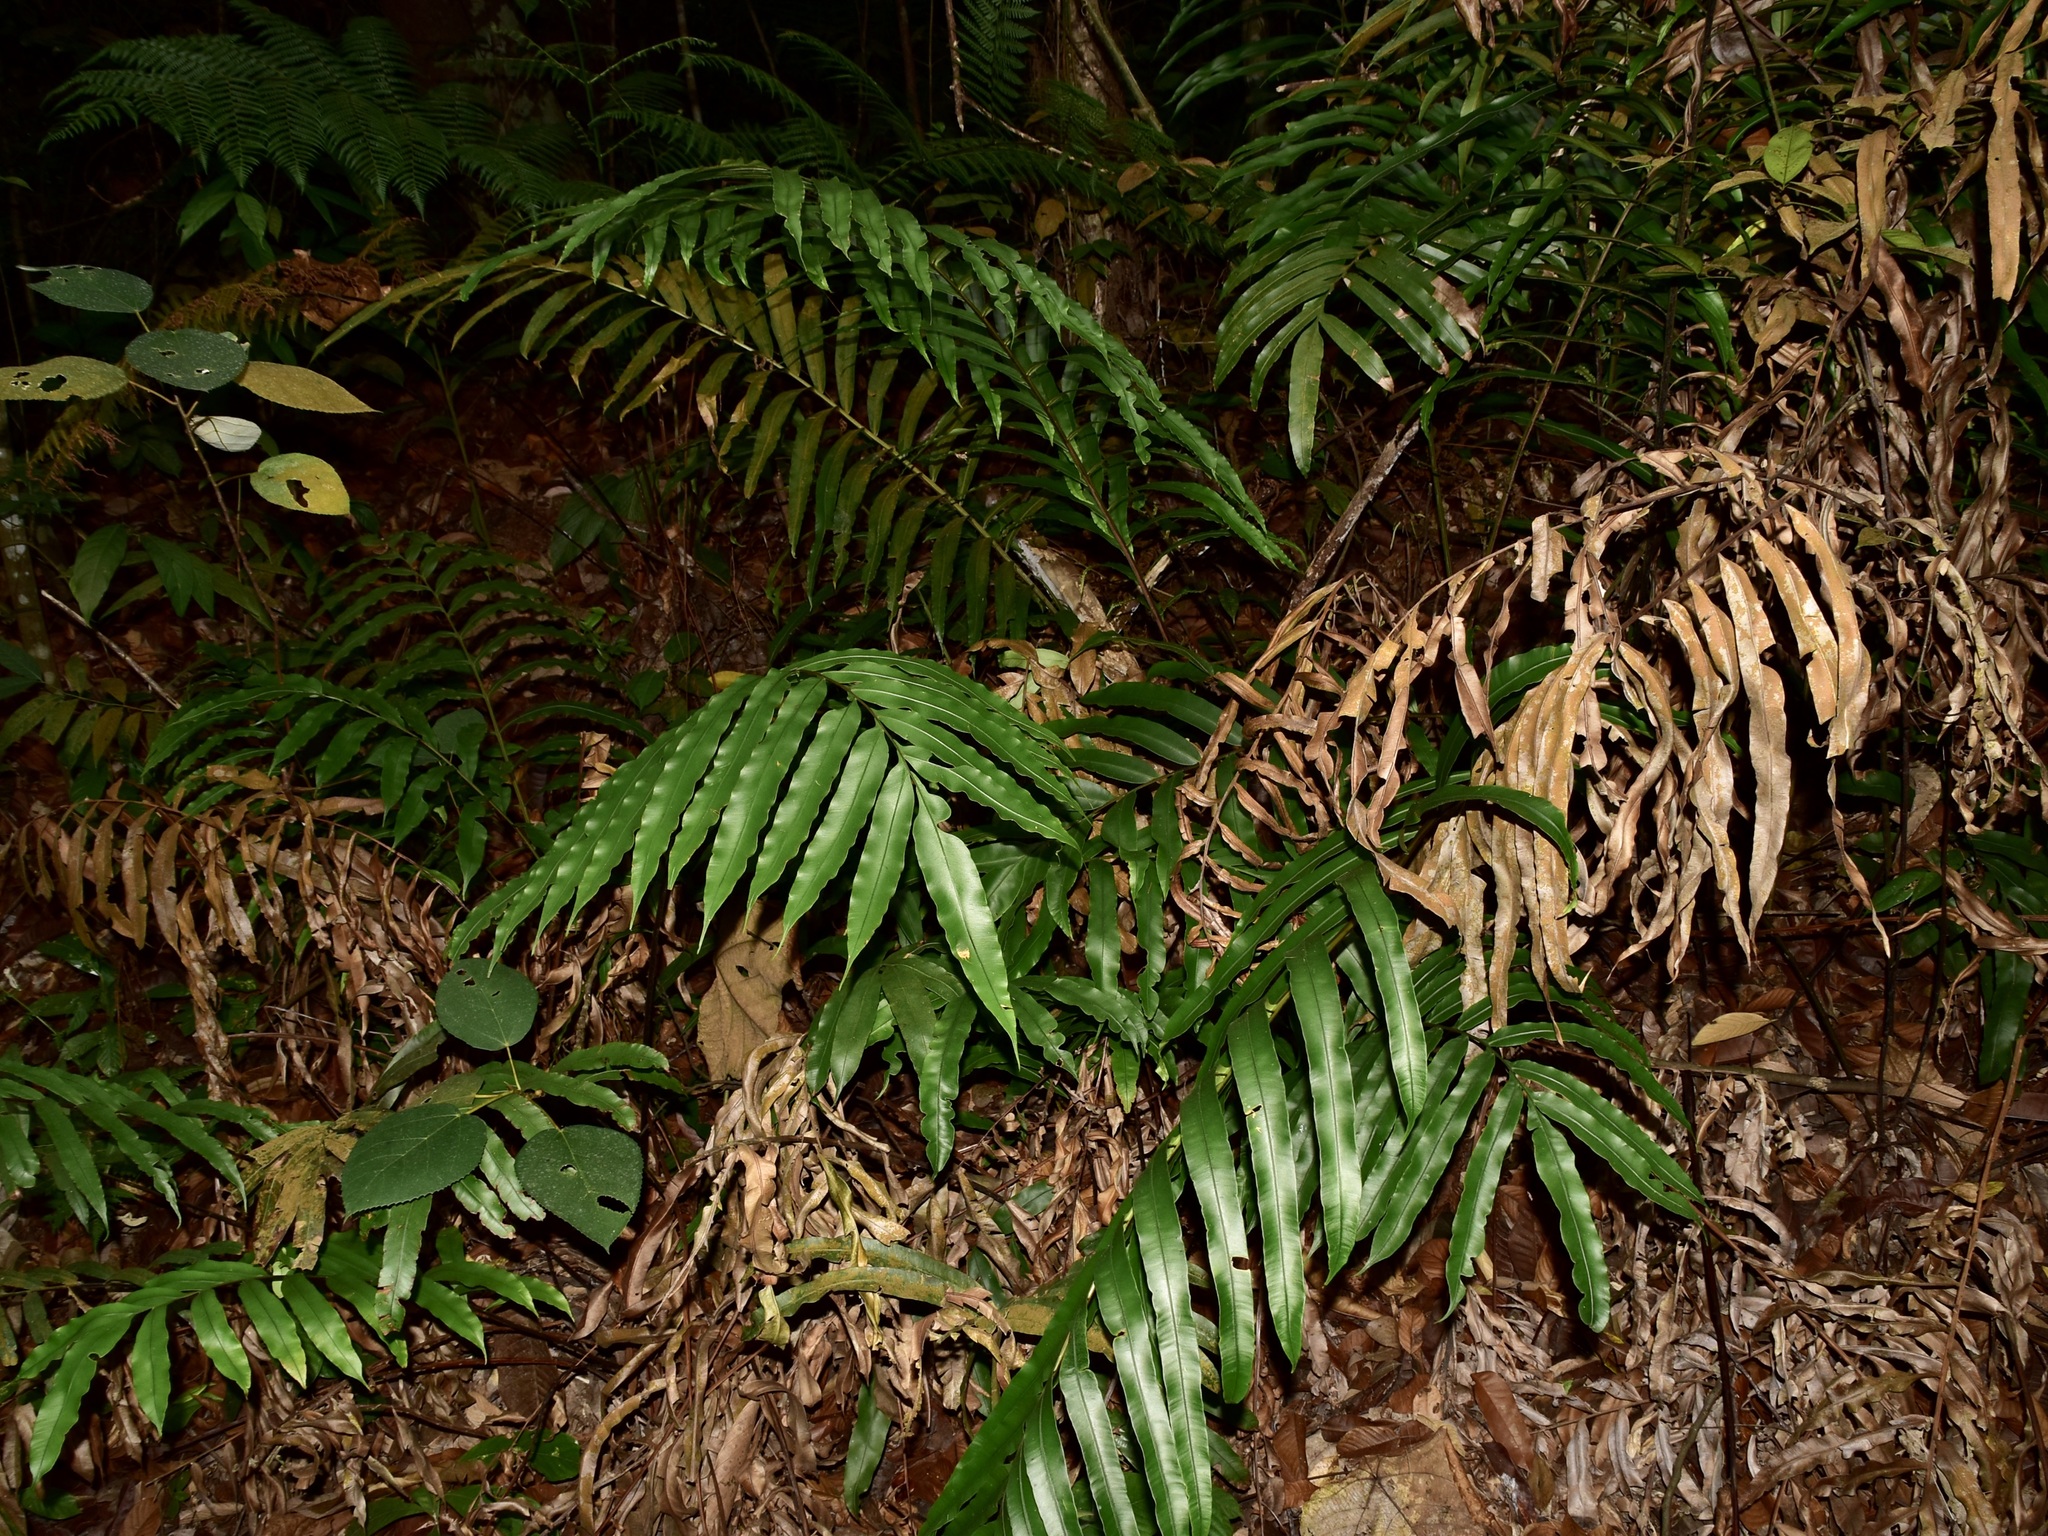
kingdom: Plantae
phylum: Tracheophyta
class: Polypodiopsida
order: Polypodiales
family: Blechnaceae
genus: Blechnopsis
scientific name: Blechnopsis orientalis
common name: Oriental blechnum
